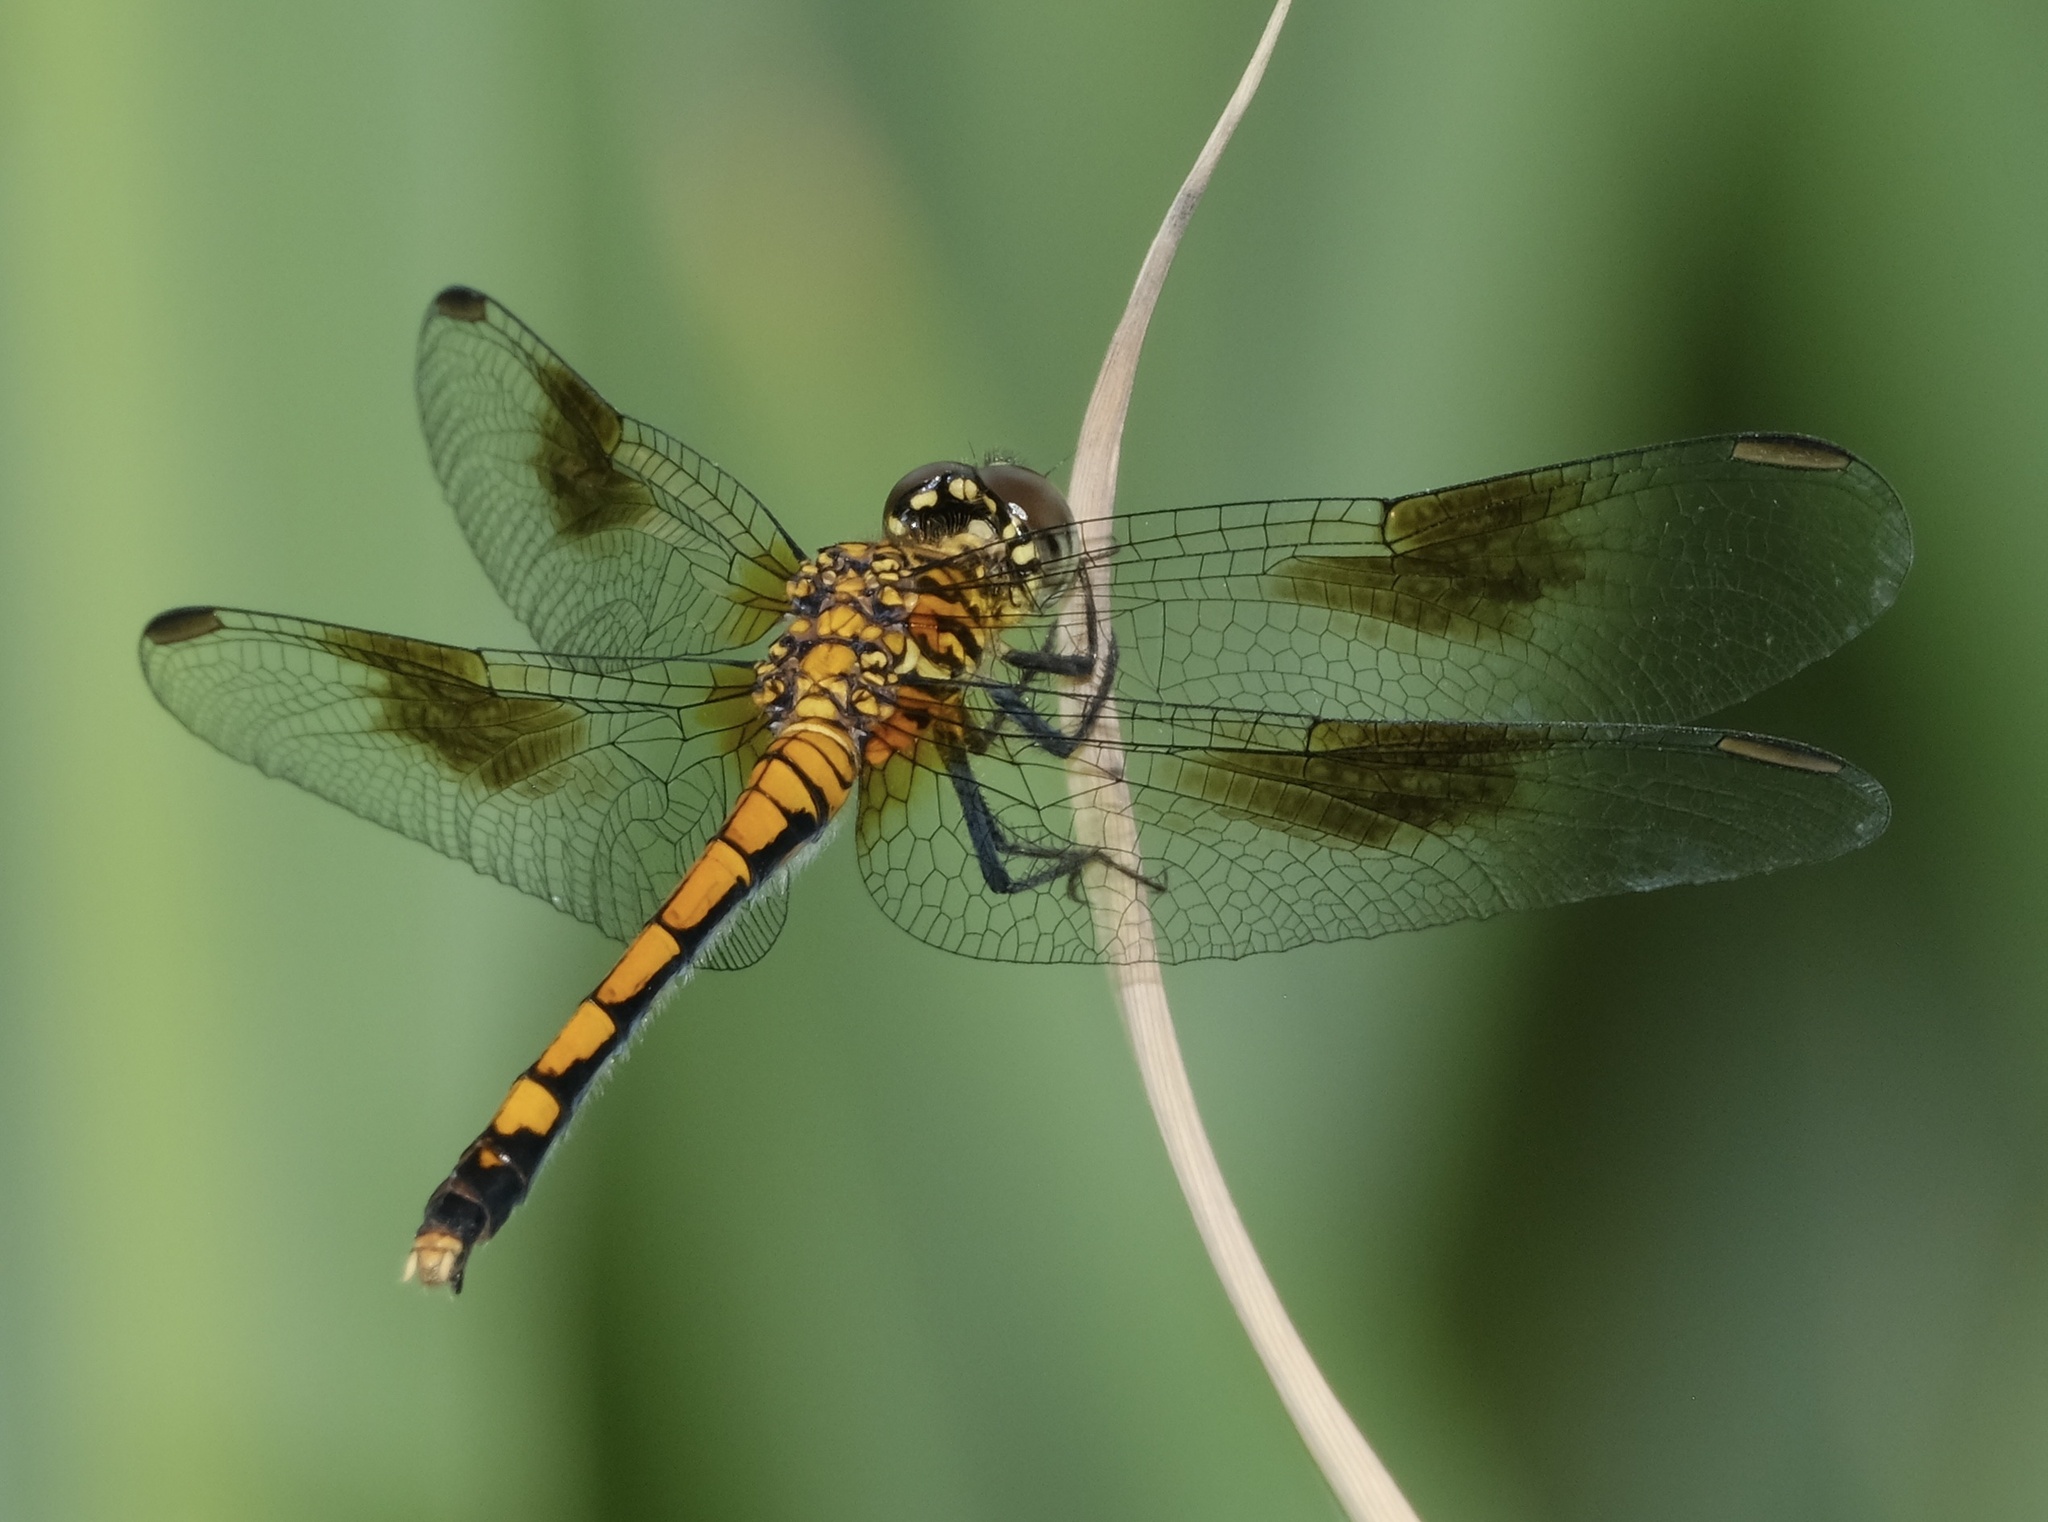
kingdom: Animalia
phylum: Arthropoda
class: Insecta
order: Odonata
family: Libellulidae
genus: Erythrodiplax
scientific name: Erythrodiplax berenice
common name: Seaside dragonlet
